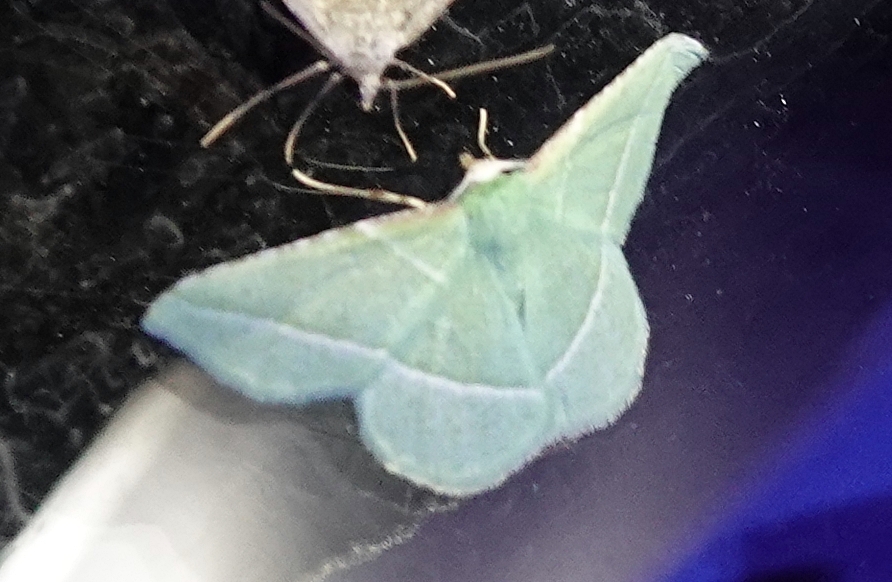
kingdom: Animalia
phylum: Arthropoda
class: Insecta
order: Lepidoptera
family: Geometridae
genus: Dichorda
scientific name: Dichorda rectaria
